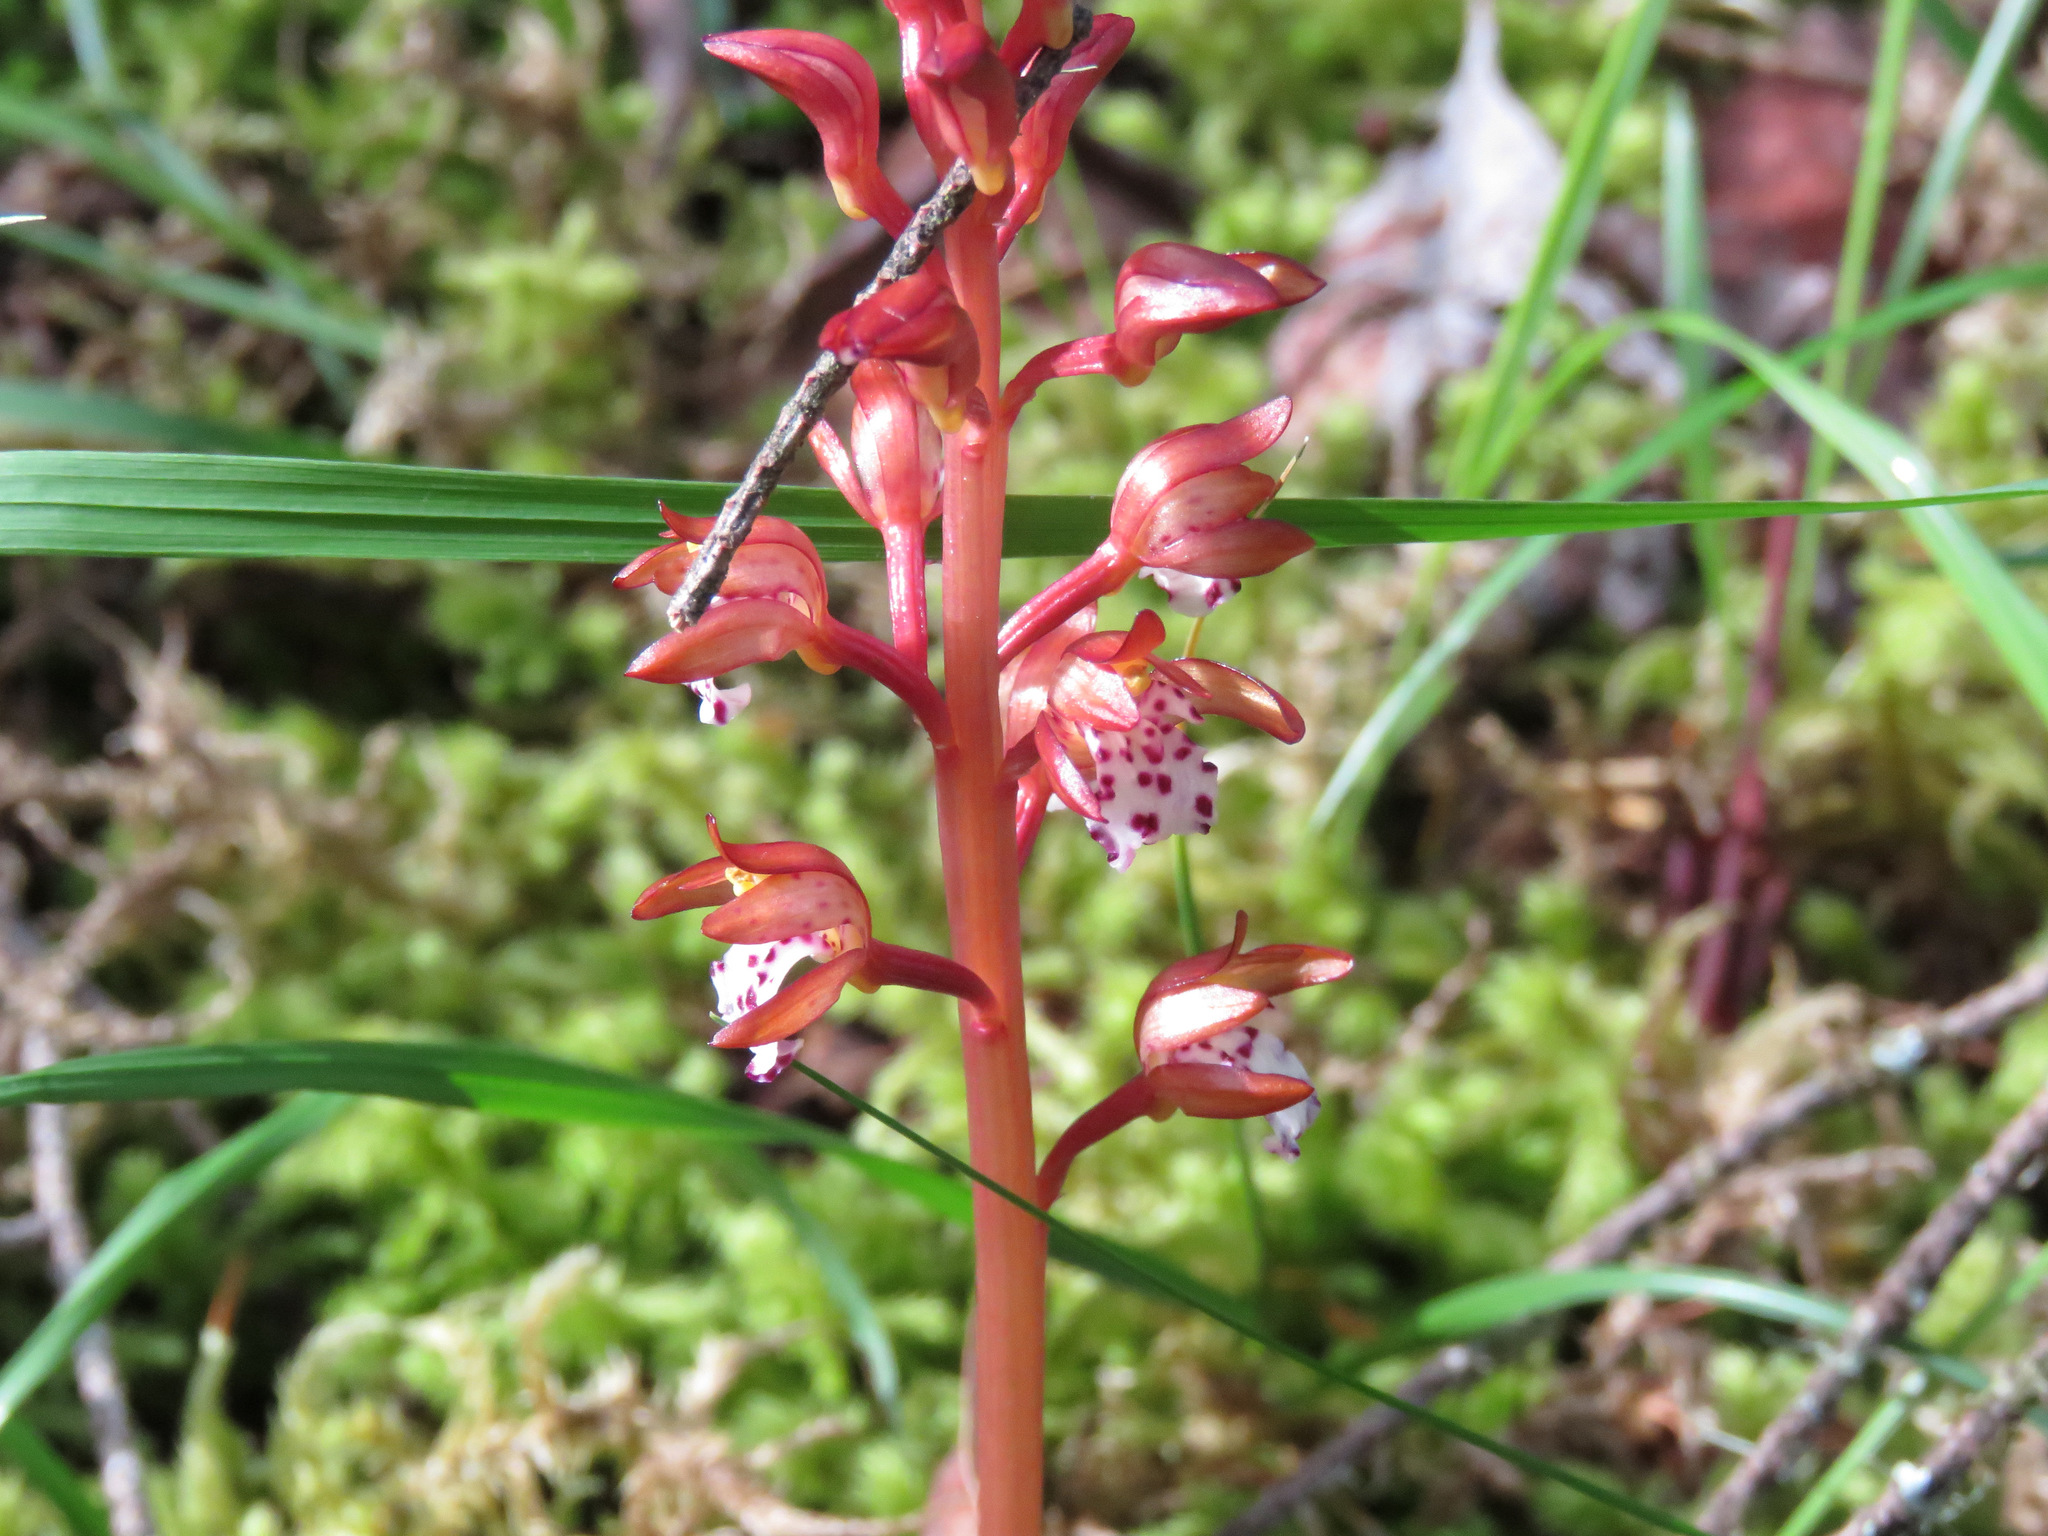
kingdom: Plantae
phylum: Tracheophyta
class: Liliopsida
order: Asparagales
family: Orchidaceae
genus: Corallorhiza
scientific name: Corallorhiza maculata
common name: Spotted coralroot
